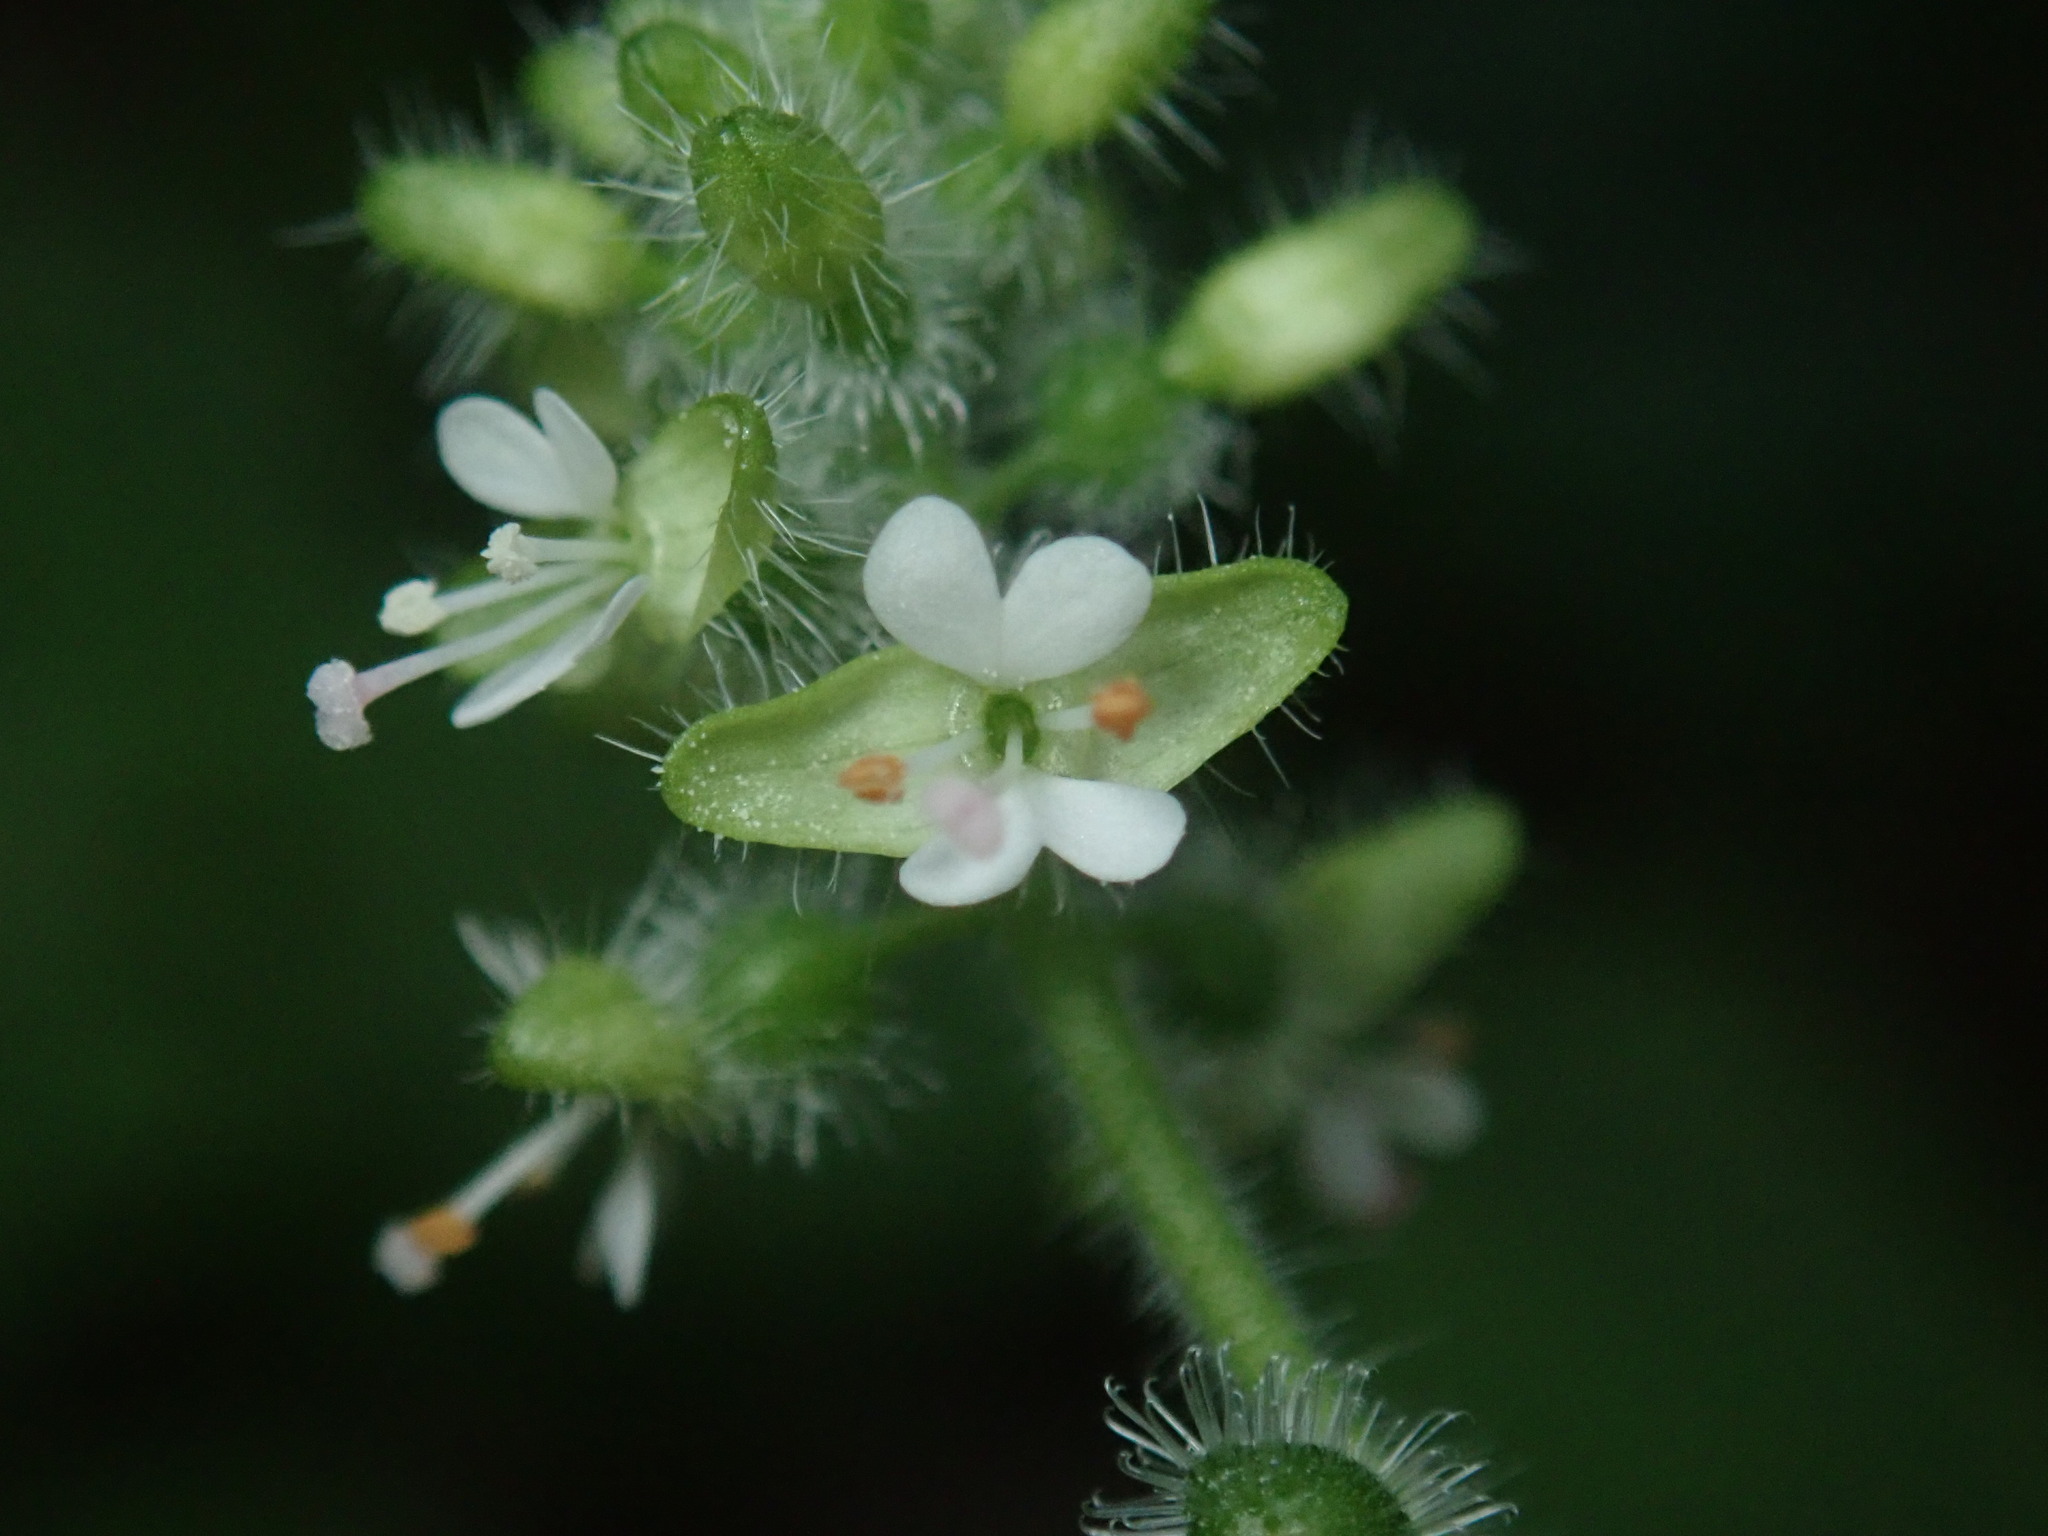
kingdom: Plantae
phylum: Tracheophyta
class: Magnoliopsida
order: Myrtales
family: Onagraceae
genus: Circaea
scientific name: Circaea cordata
